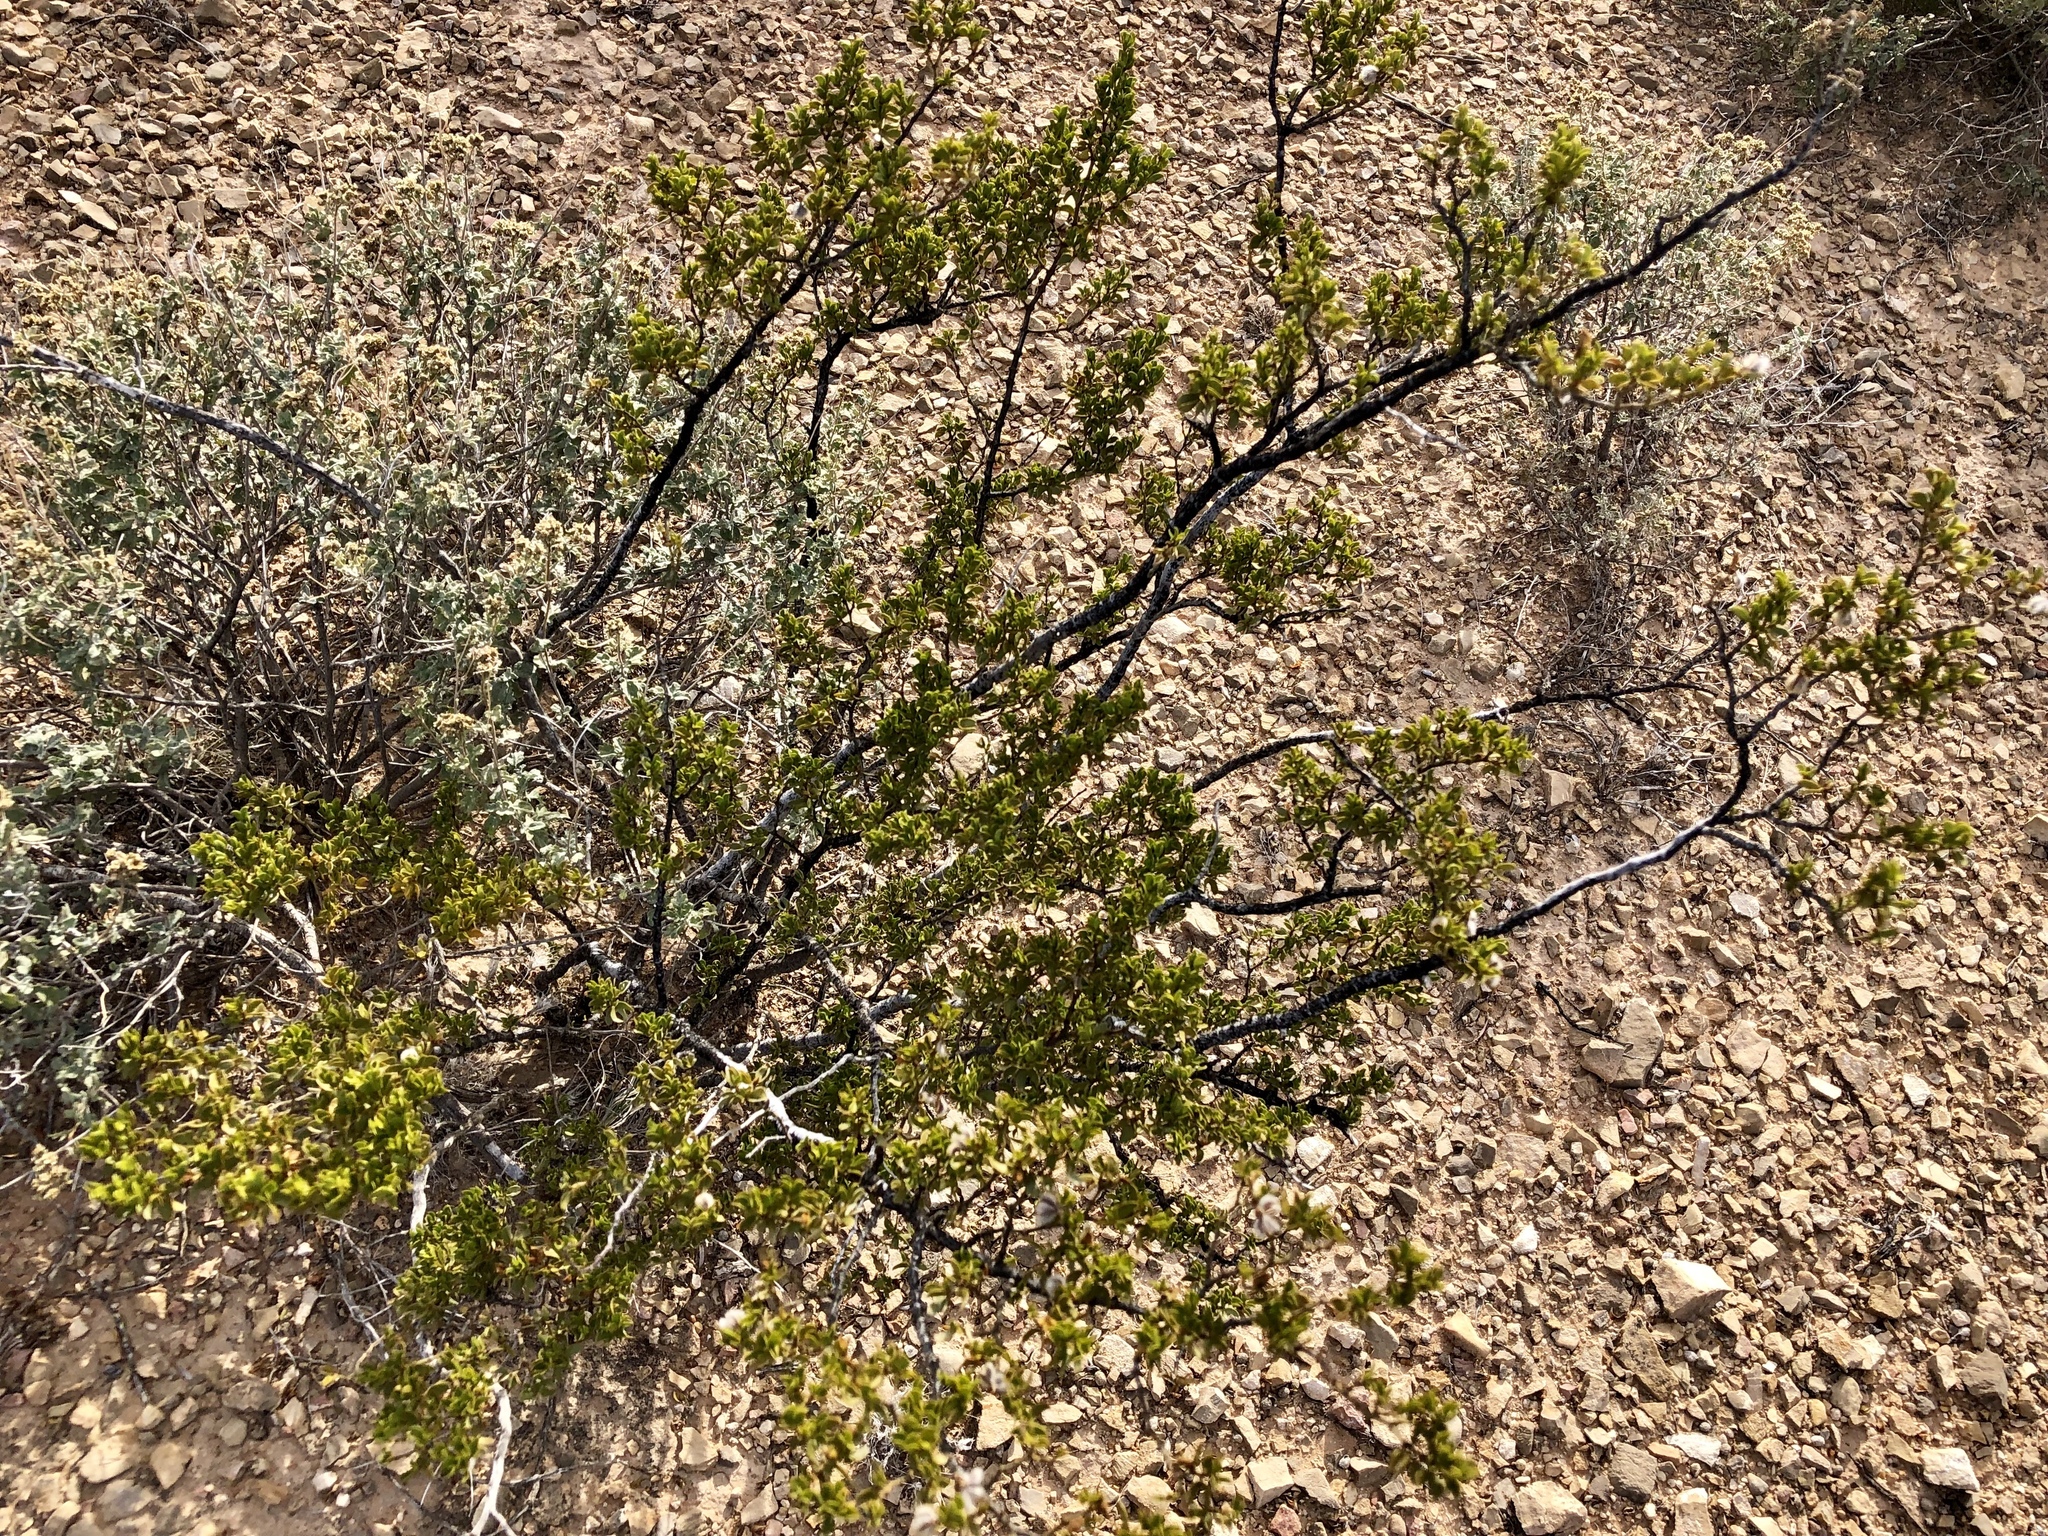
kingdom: Plantae
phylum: Tracheophyta
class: Magnoliopsida
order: Zygophyllales
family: Zygophyllaceae
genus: Larrea
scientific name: Larrea tridentata
